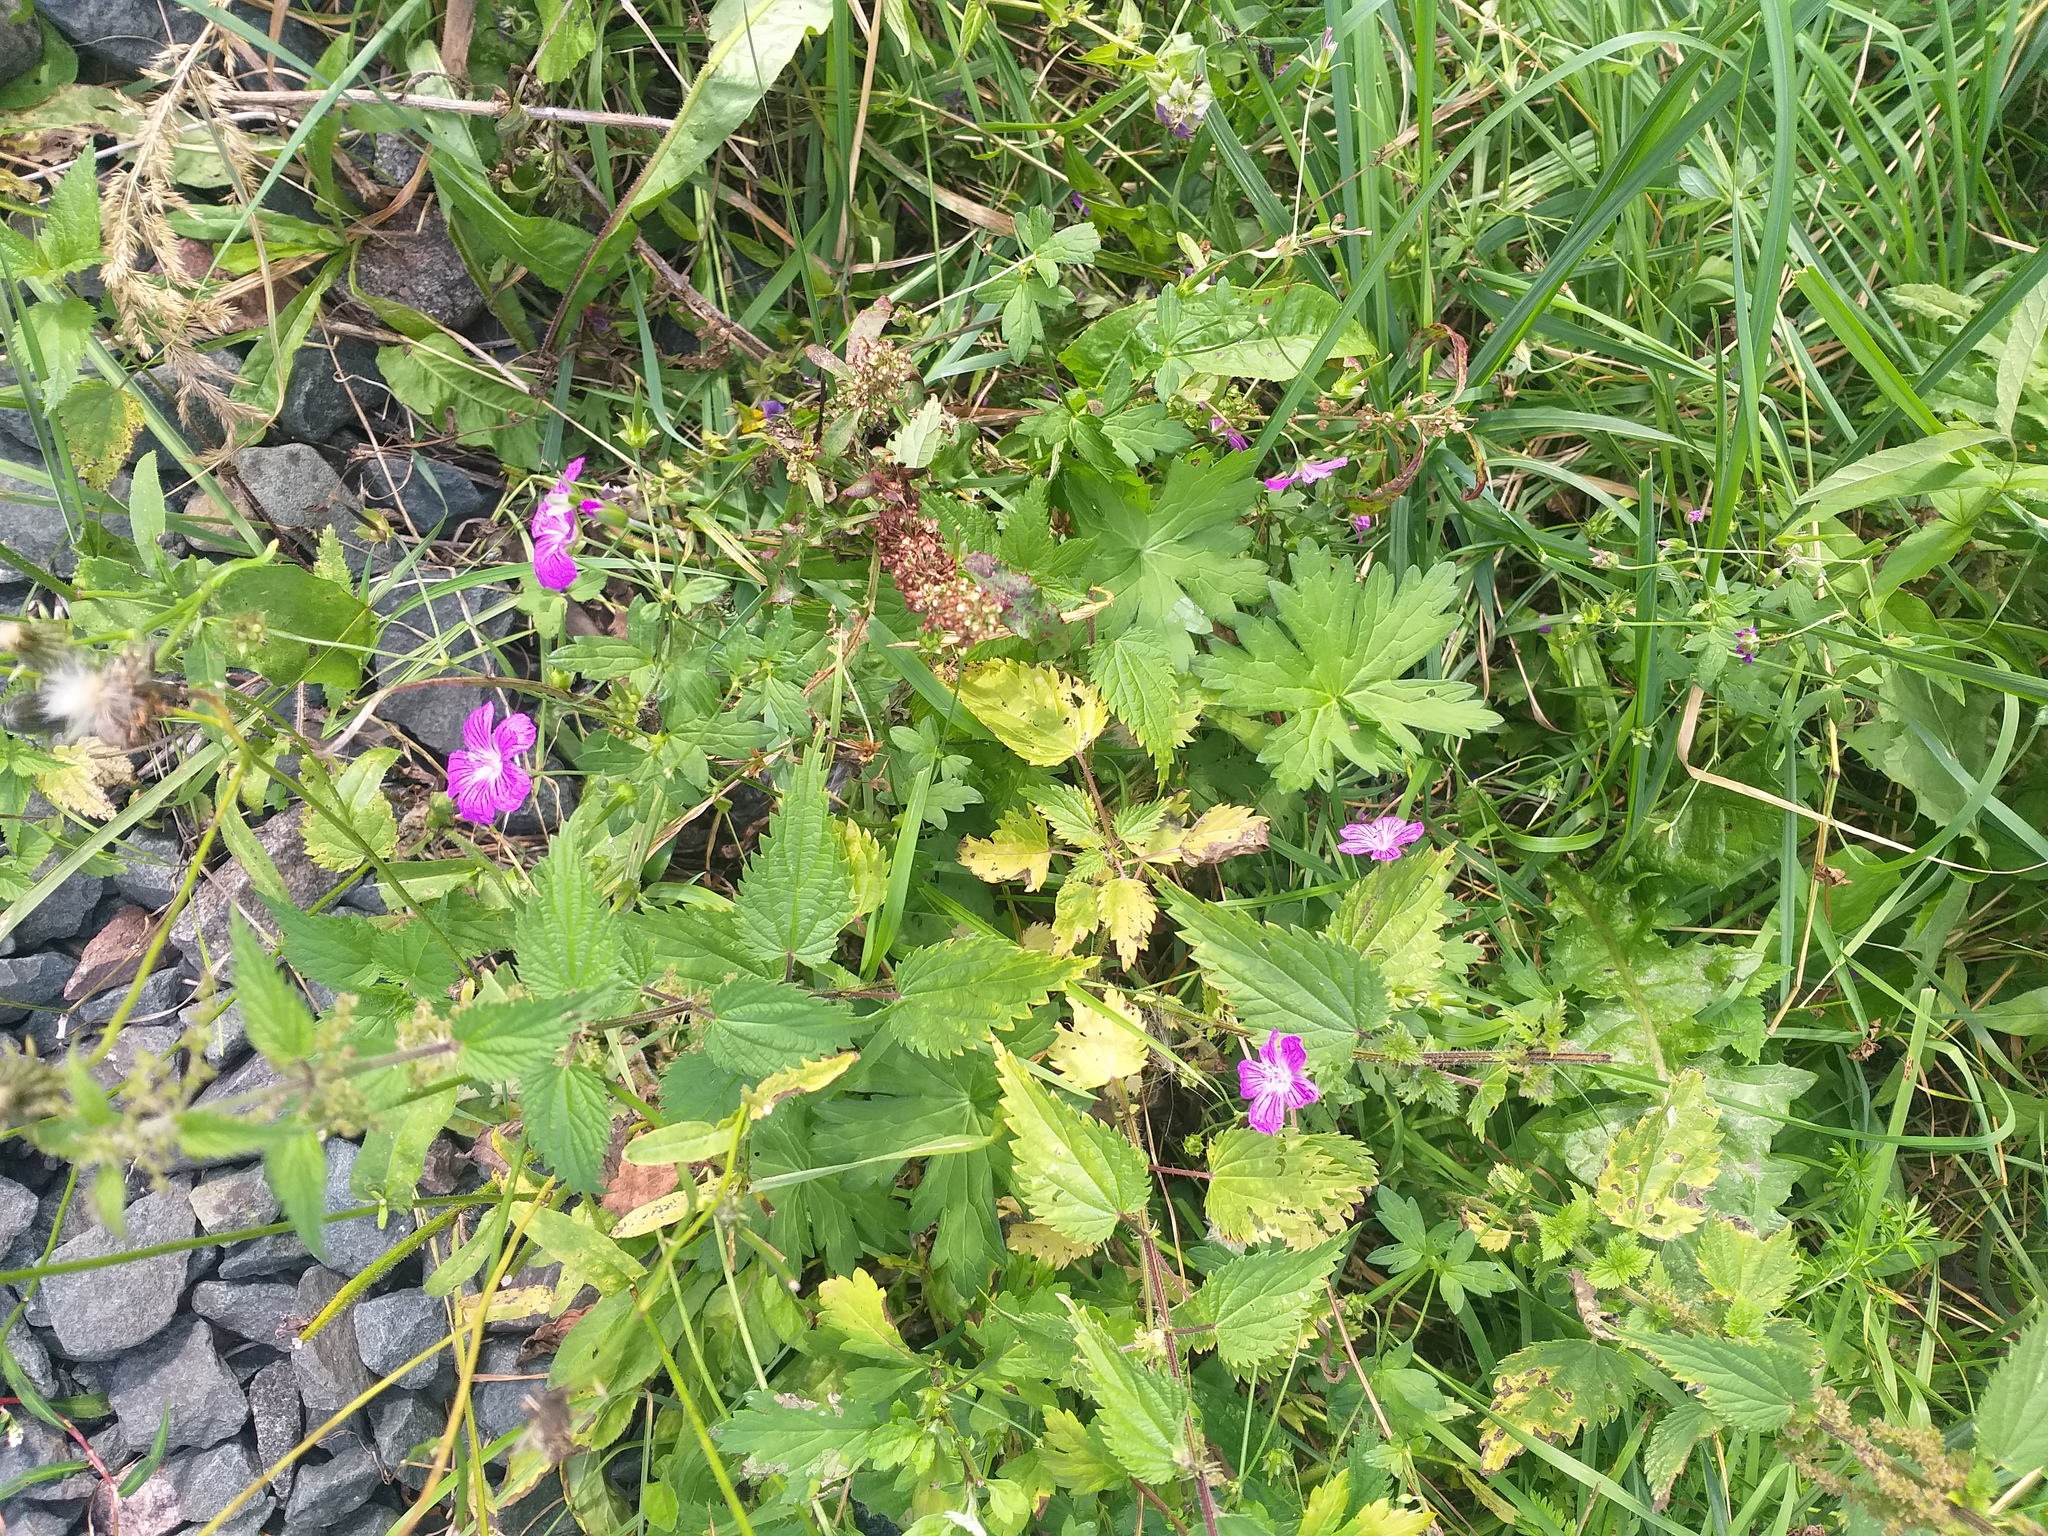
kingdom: Plantae
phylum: Tracheophyta
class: Magnoliopsida
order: Geraniales
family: Geraniaceae
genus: Geranium
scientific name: Geranium palustre
